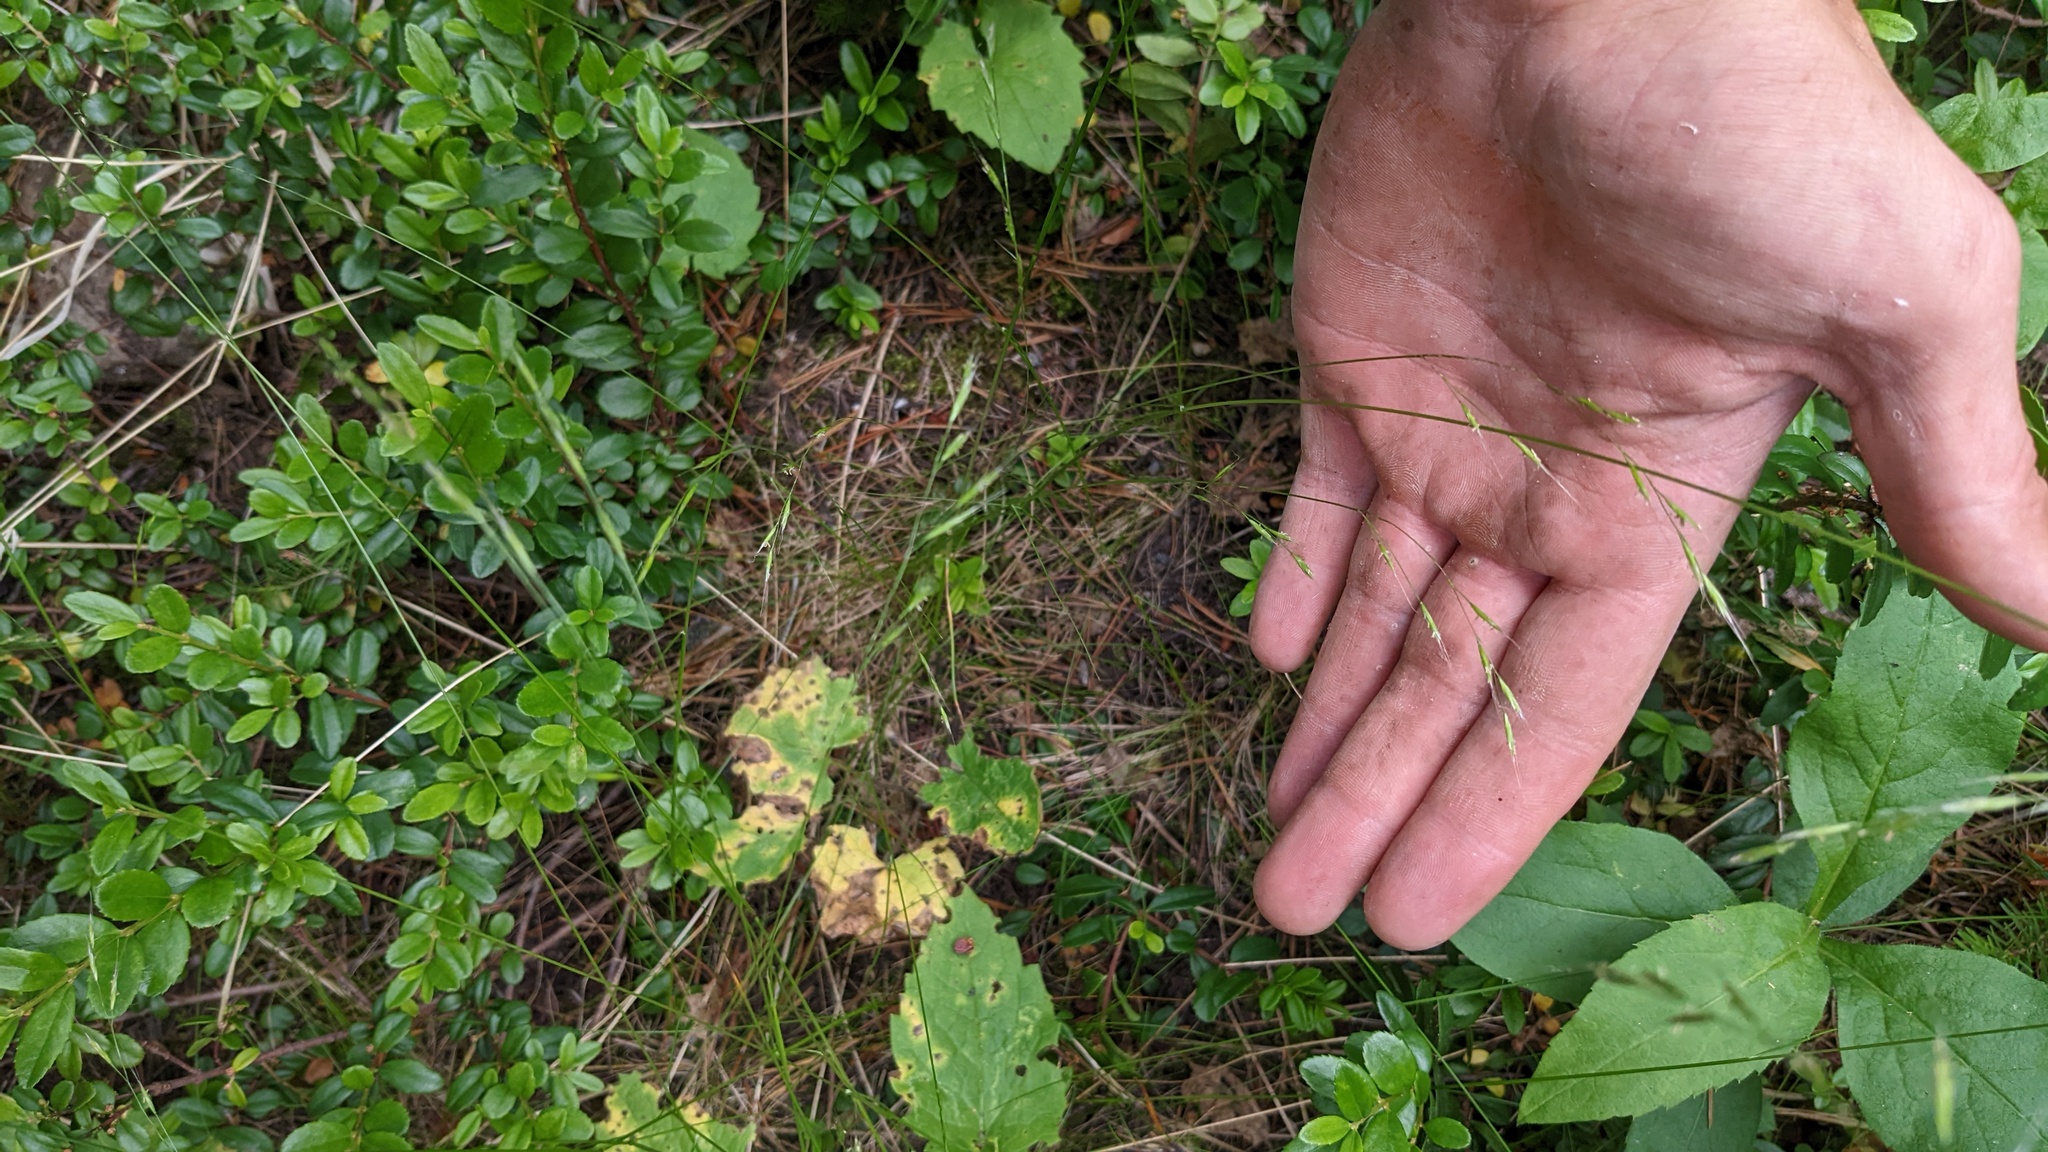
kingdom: Plantae
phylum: Tracheophyta
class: Liliopsida
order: Poales
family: Poaceae
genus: Festuca
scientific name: Festuca occidentalis
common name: Western fescue
